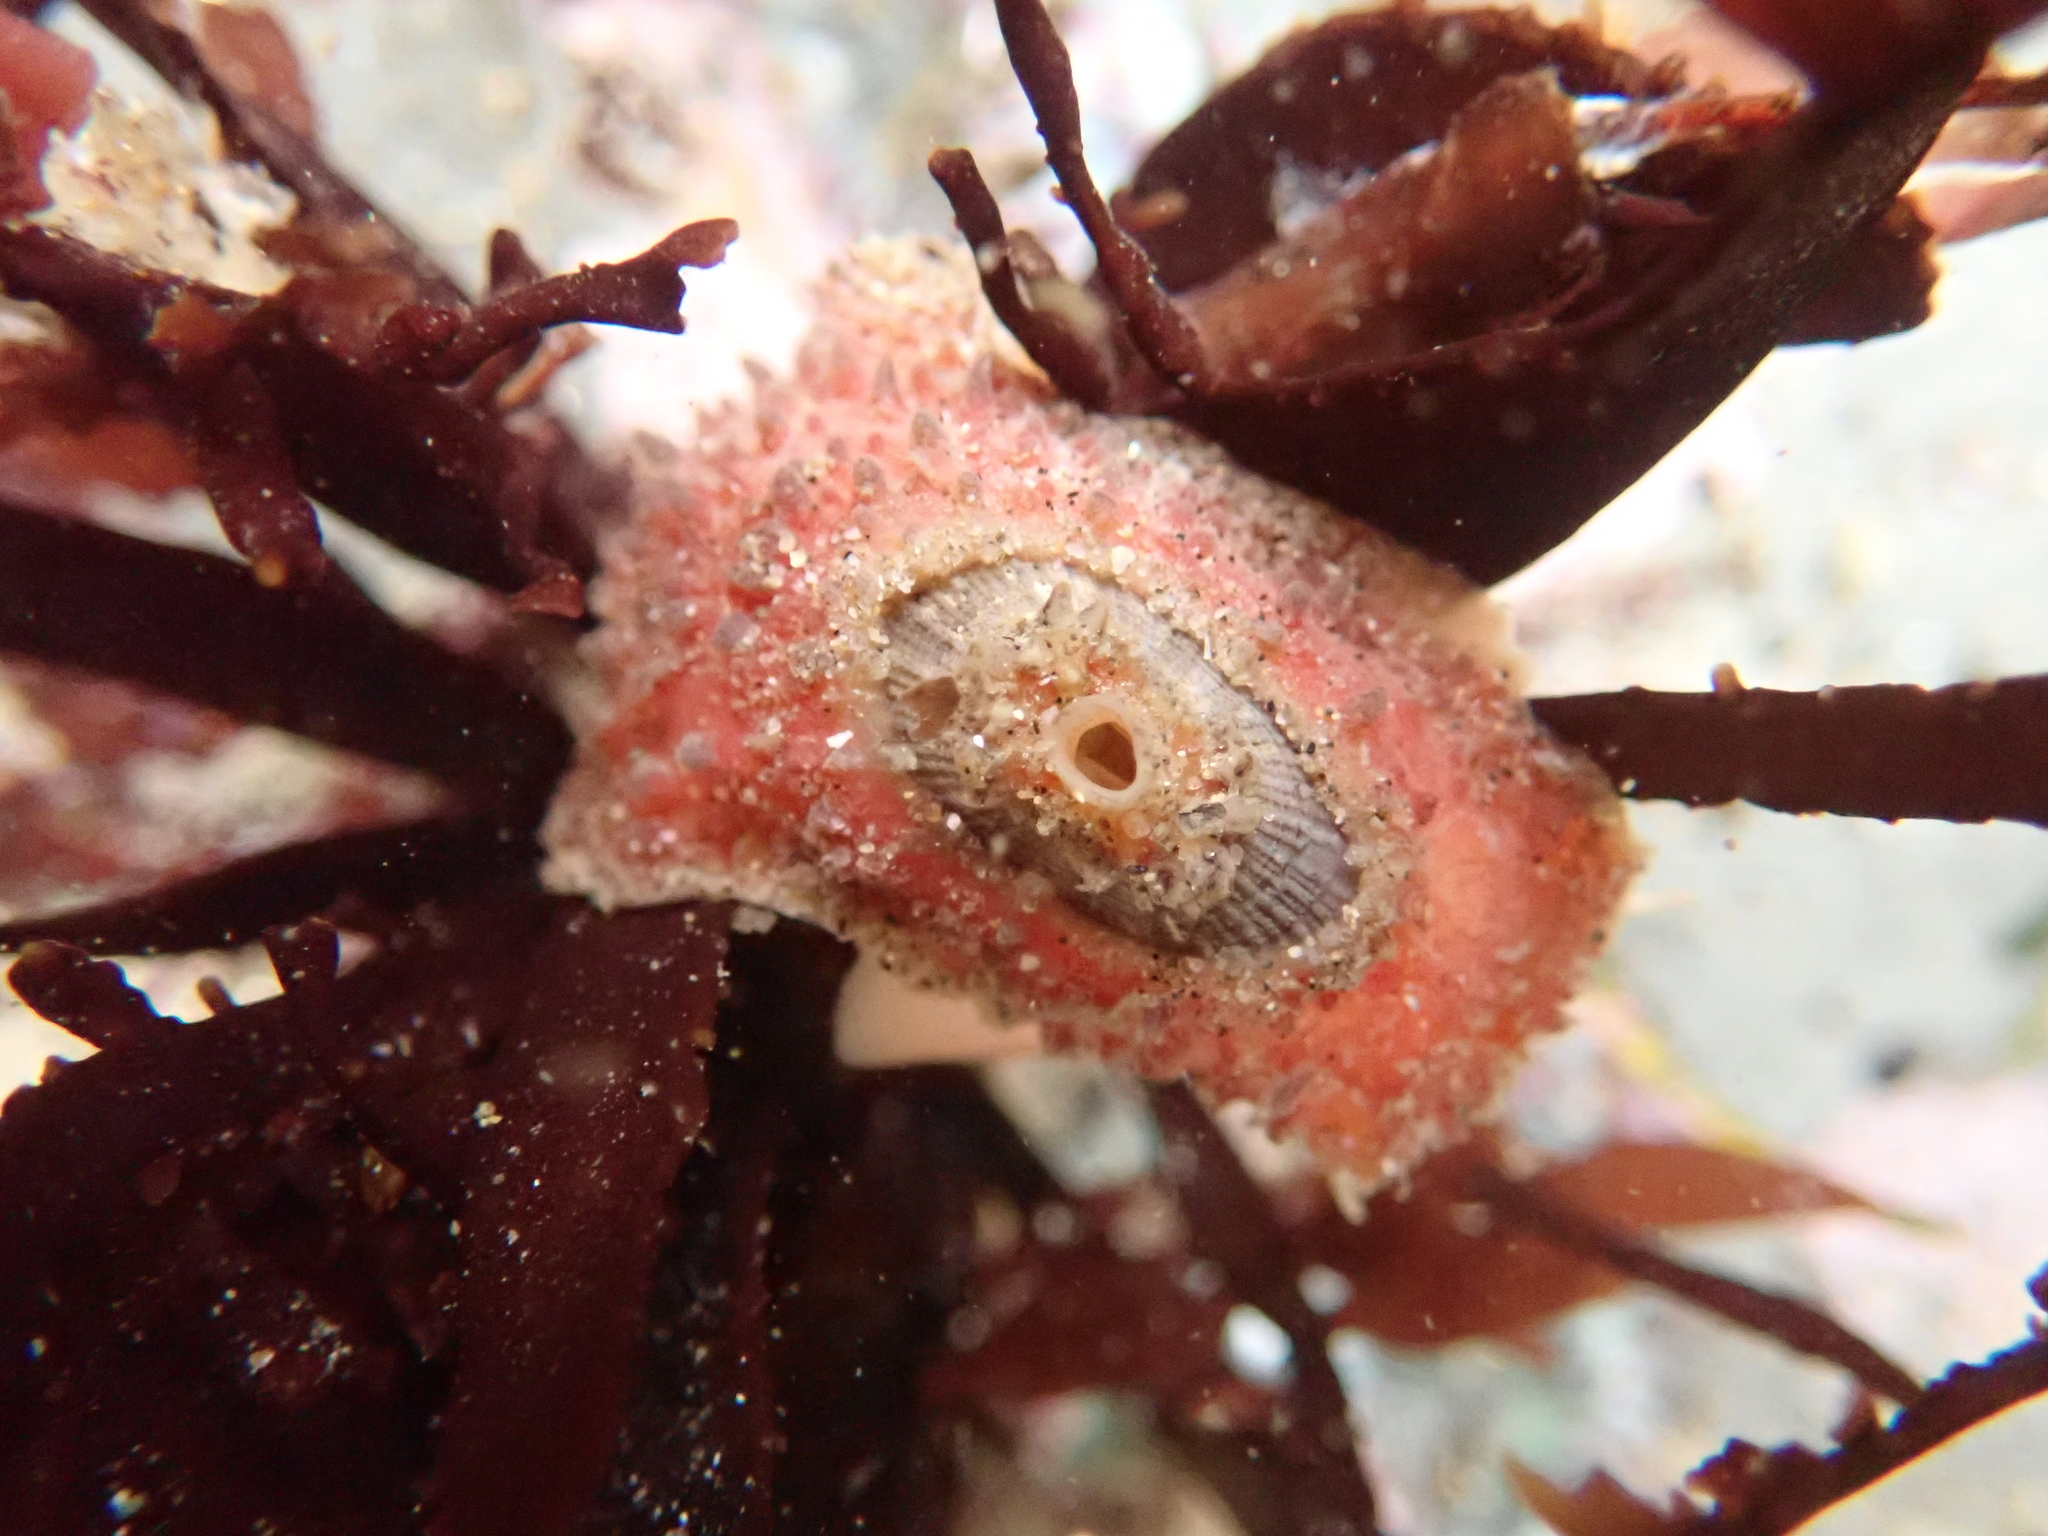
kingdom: Animalia
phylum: Mollusca
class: Gastropoda
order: Lepetellida
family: Fissurellidae
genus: Fissurellidea
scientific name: Fissurellidea bimaculata
